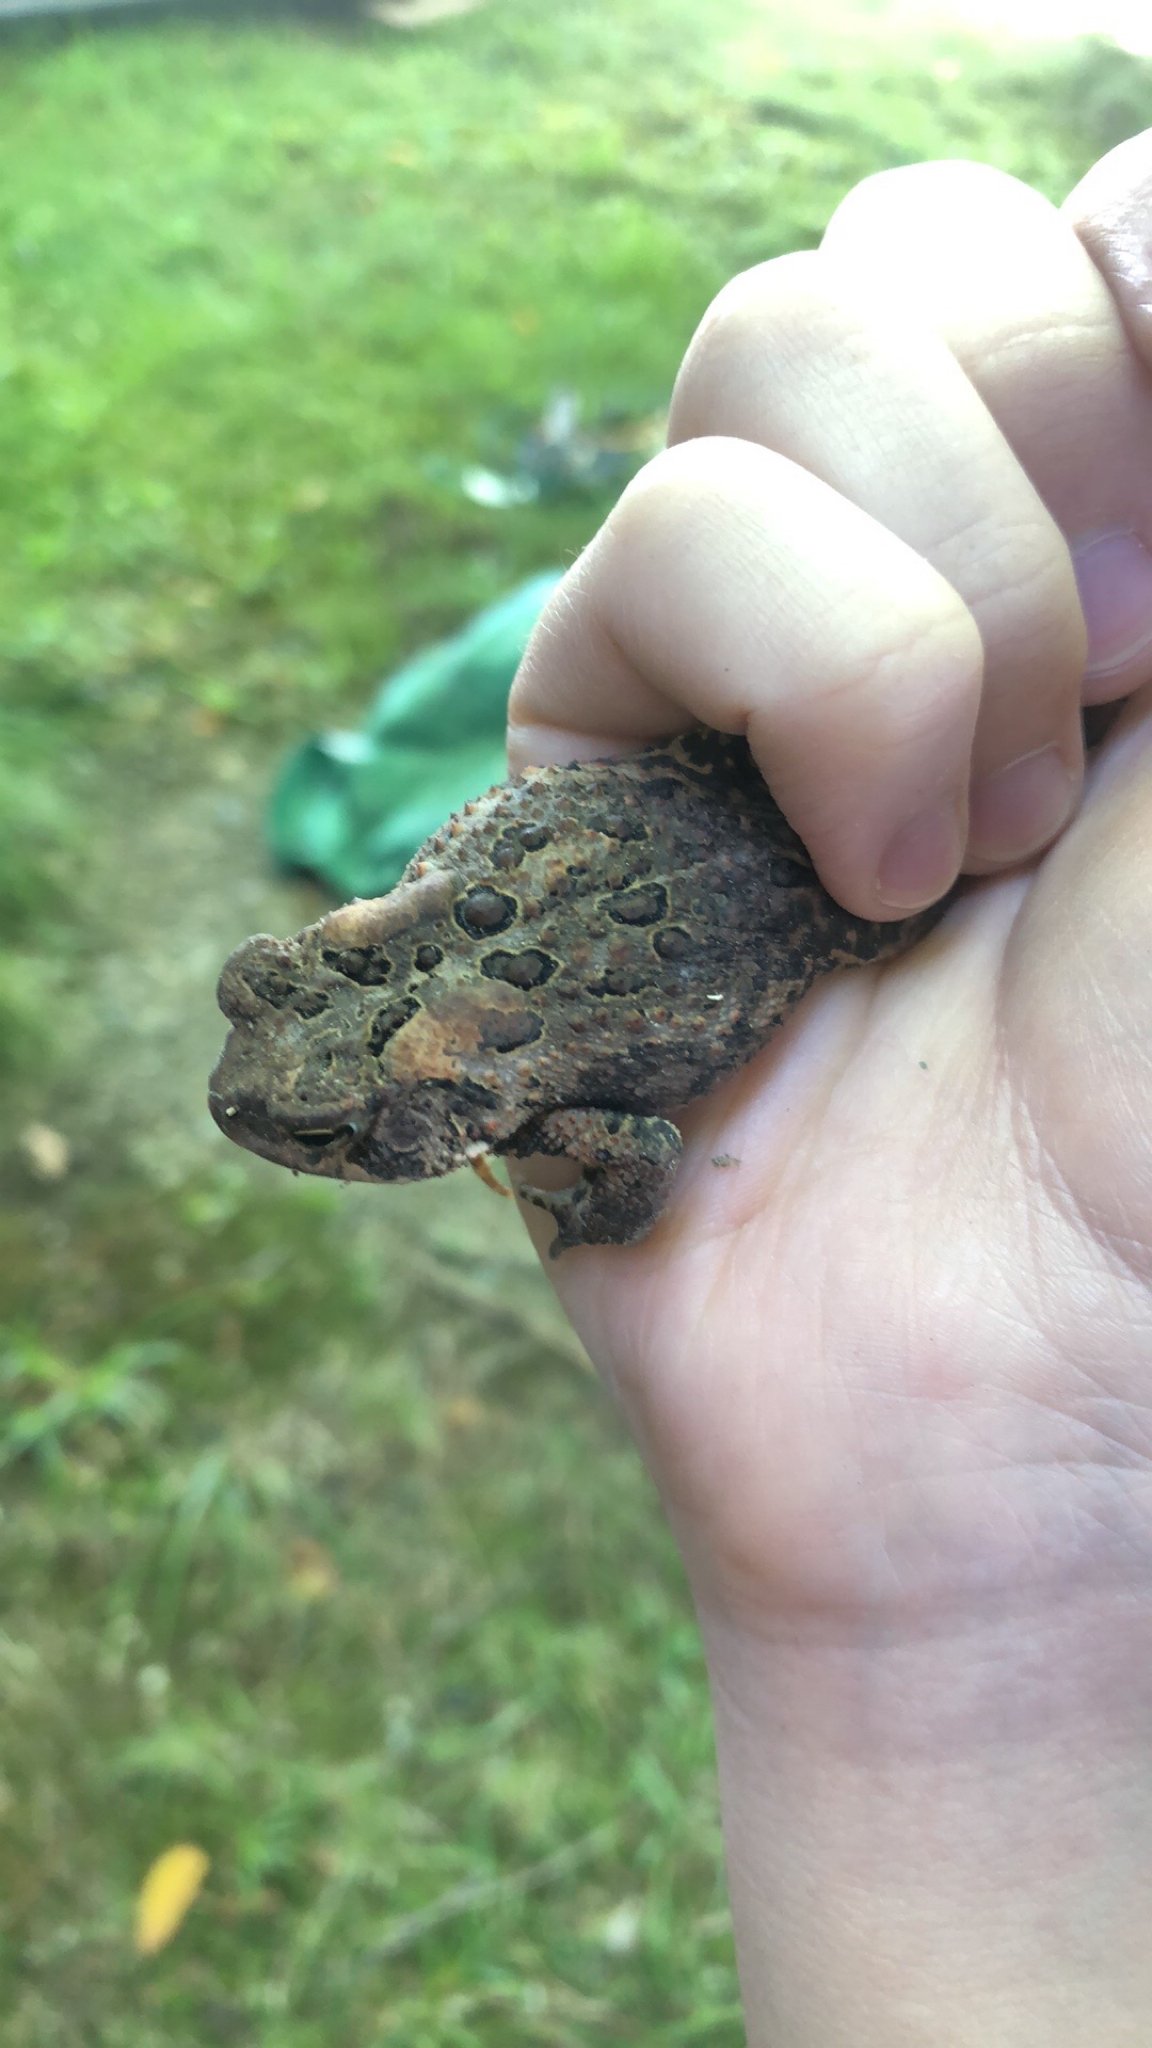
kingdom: Animalia
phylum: Chordata
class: Amphibia
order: Anura
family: Bufonidae
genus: Anaxyrus
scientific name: Anaxyrus americanus
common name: American toad
